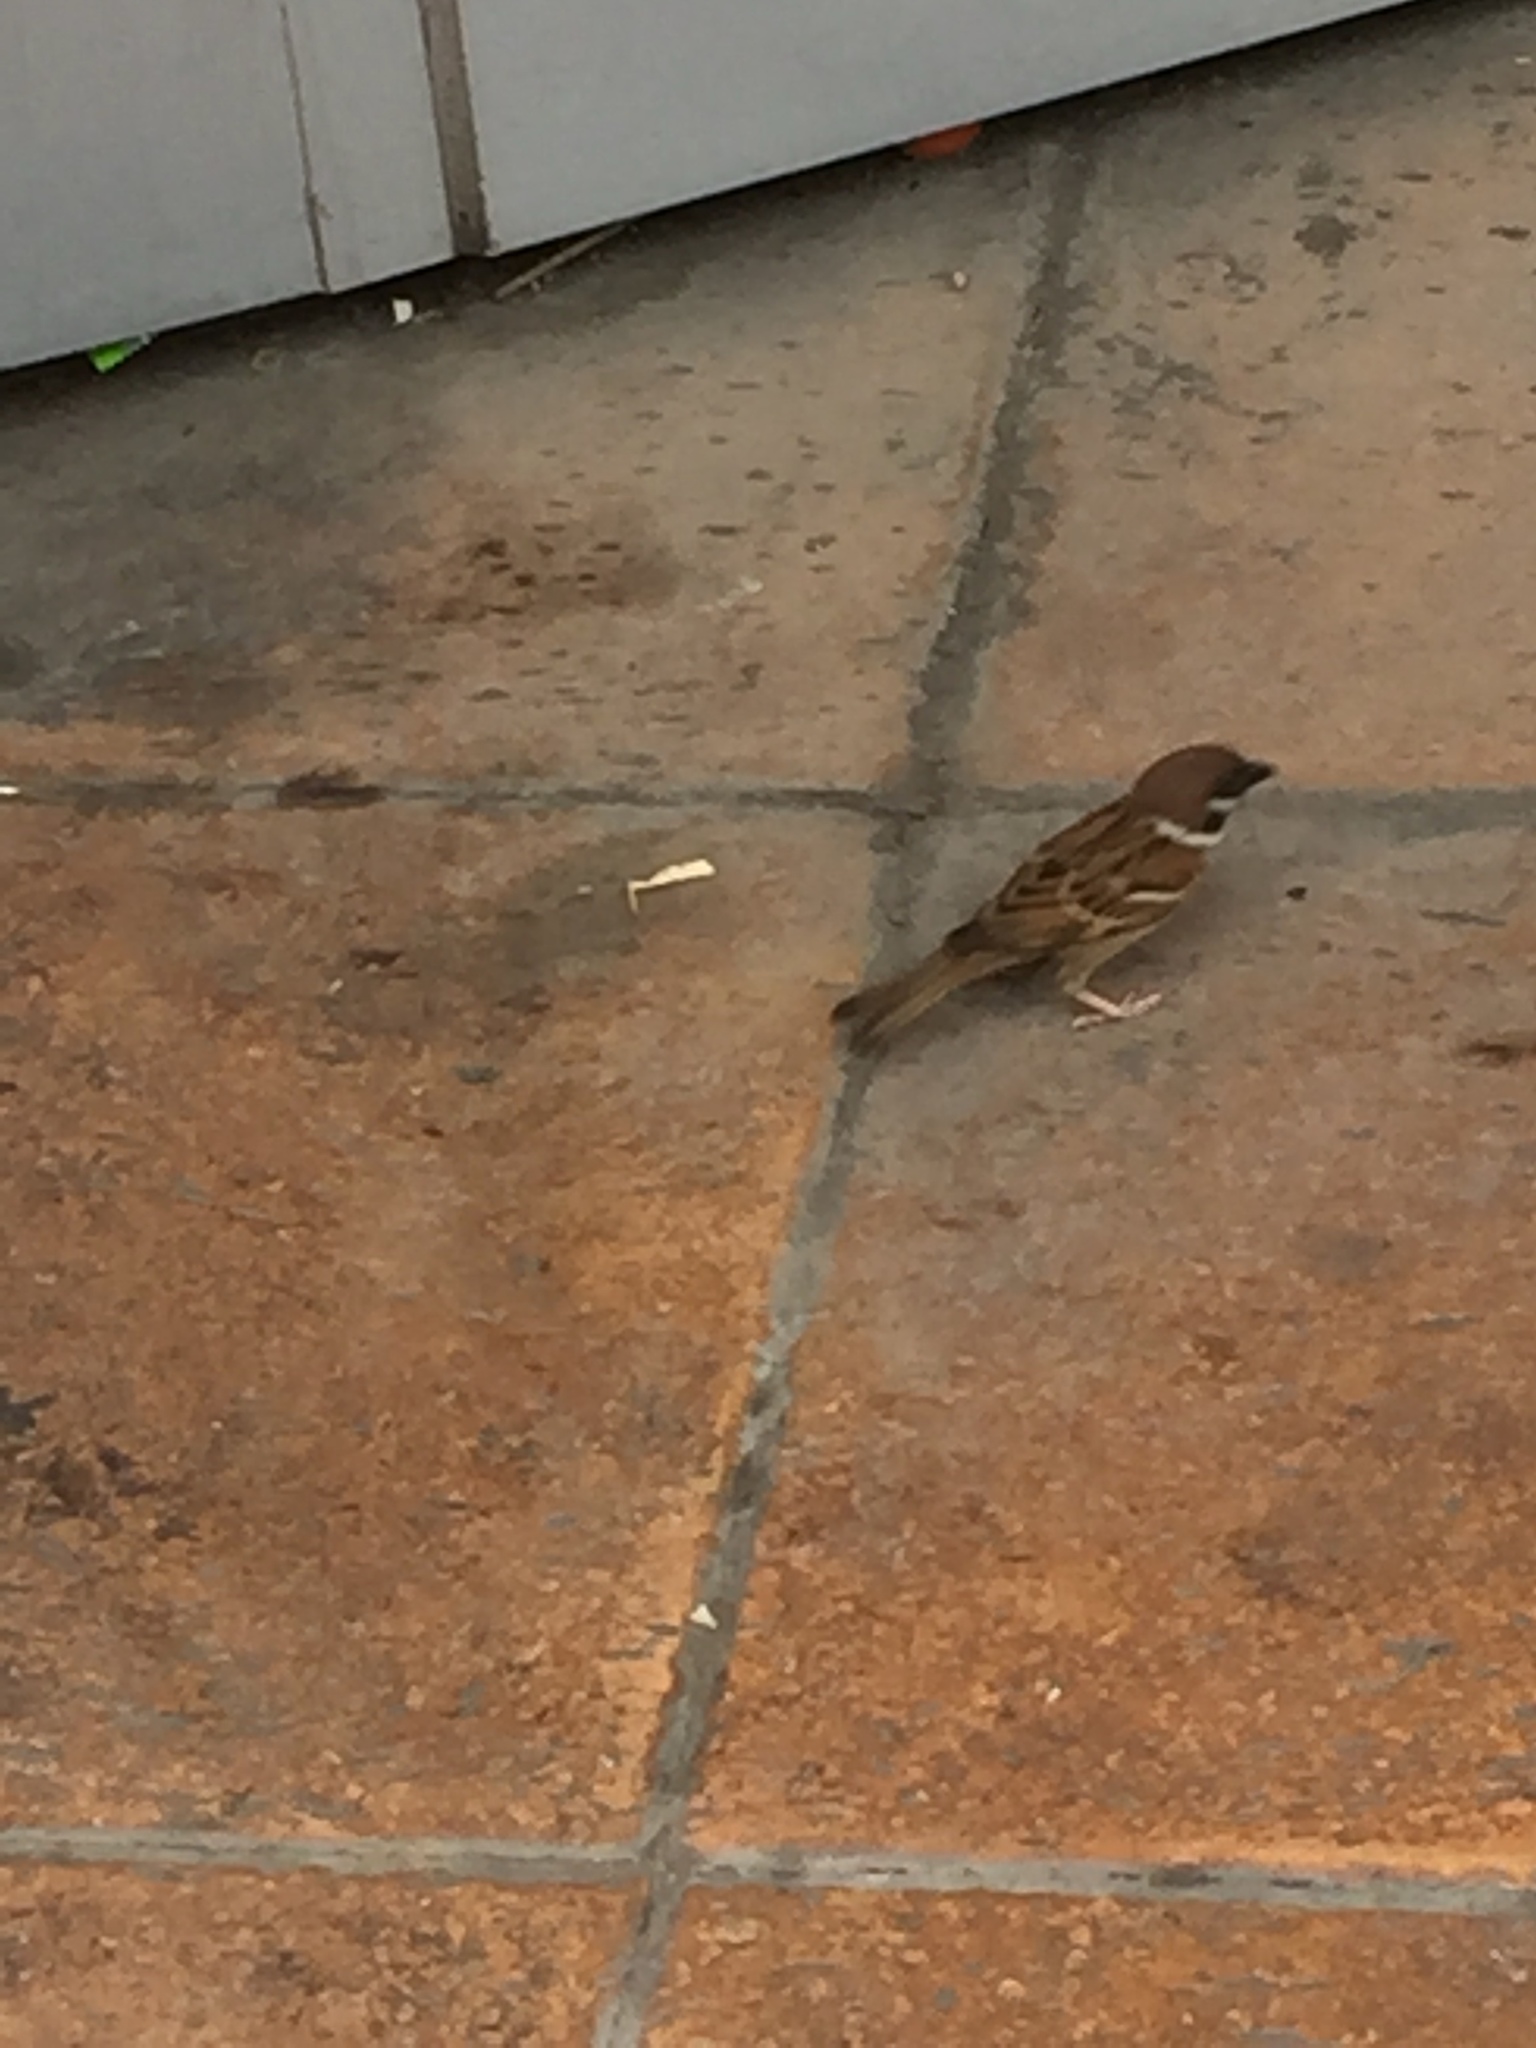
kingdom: Animalia
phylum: Chordata
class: Aves
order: Passeriformes
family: Passeridae
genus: Passer
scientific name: Passer montanus
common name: Eurasian tree sparrow
